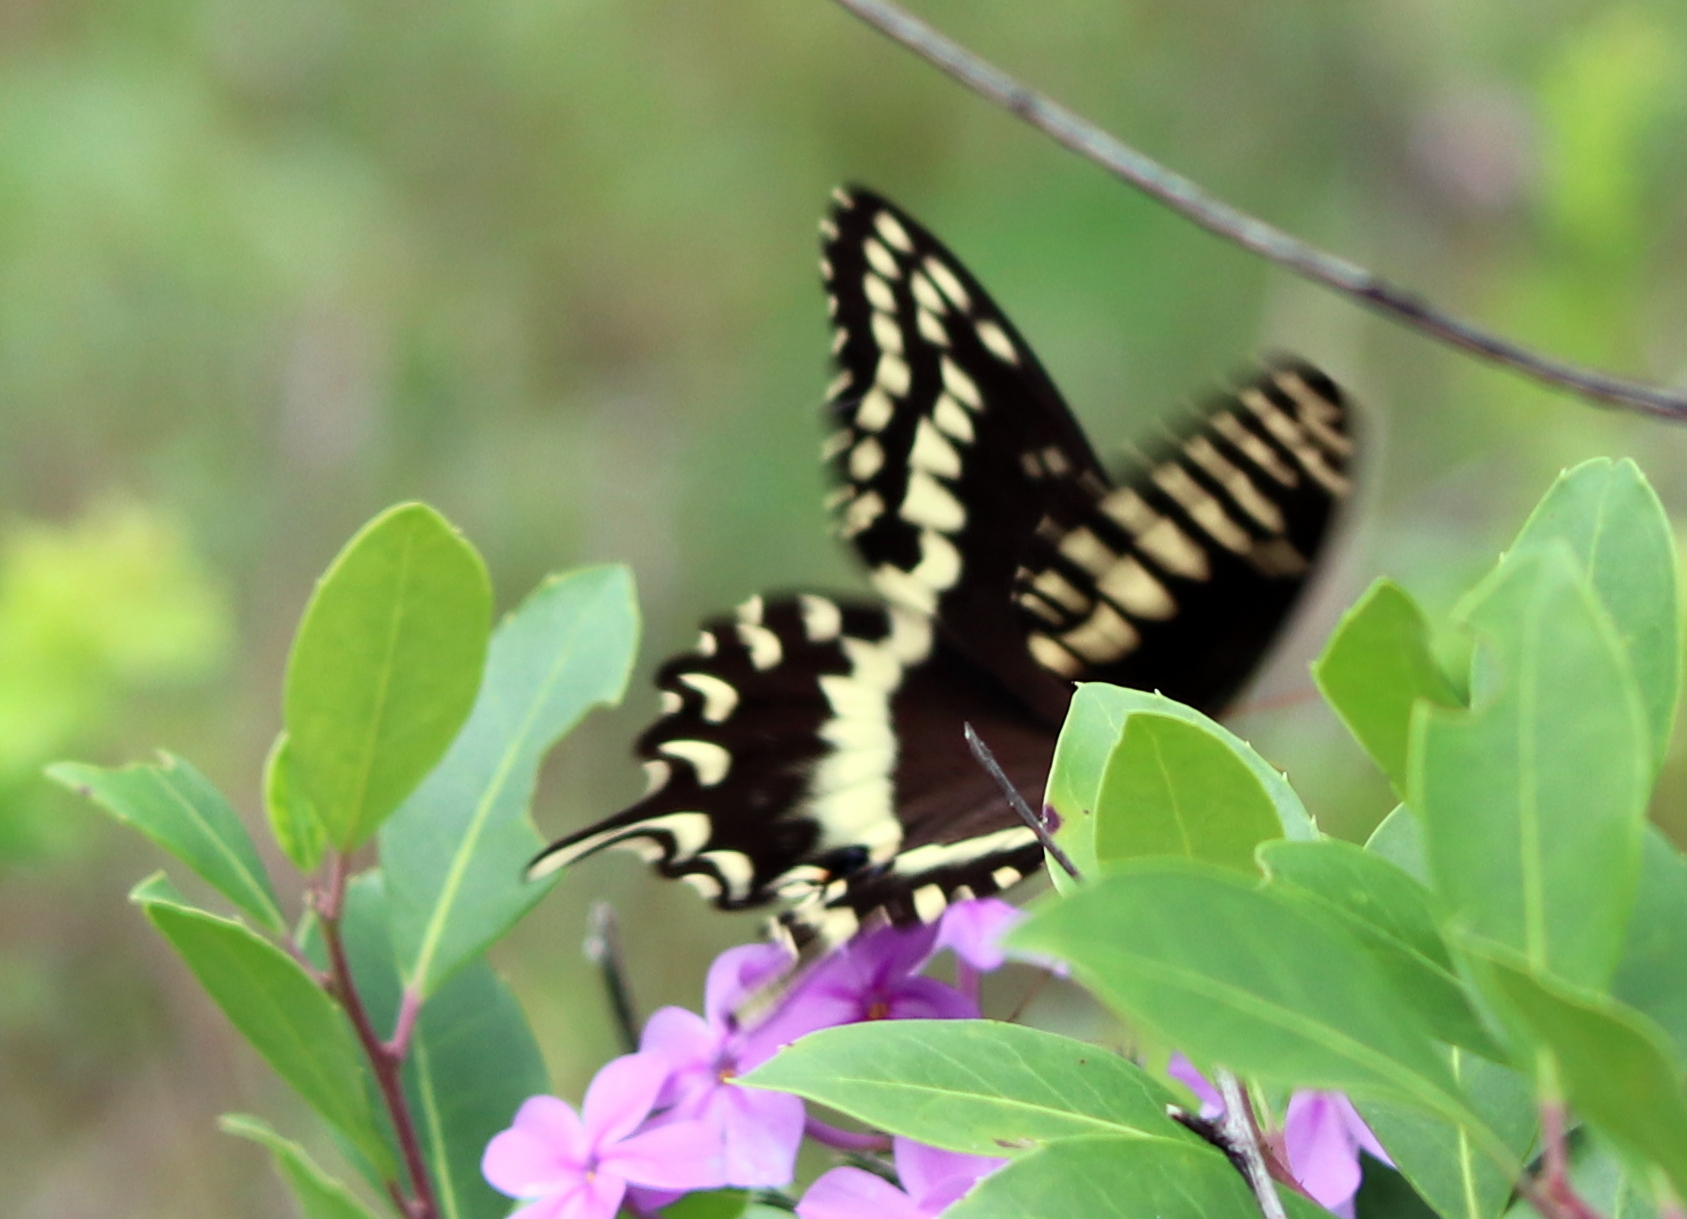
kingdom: Animalia
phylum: Arthropoda
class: Insecta
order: Lepidoptera
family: Papilionidae
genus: Papilio
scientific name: Papilio palamedes
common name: Palamedes swallowtail
